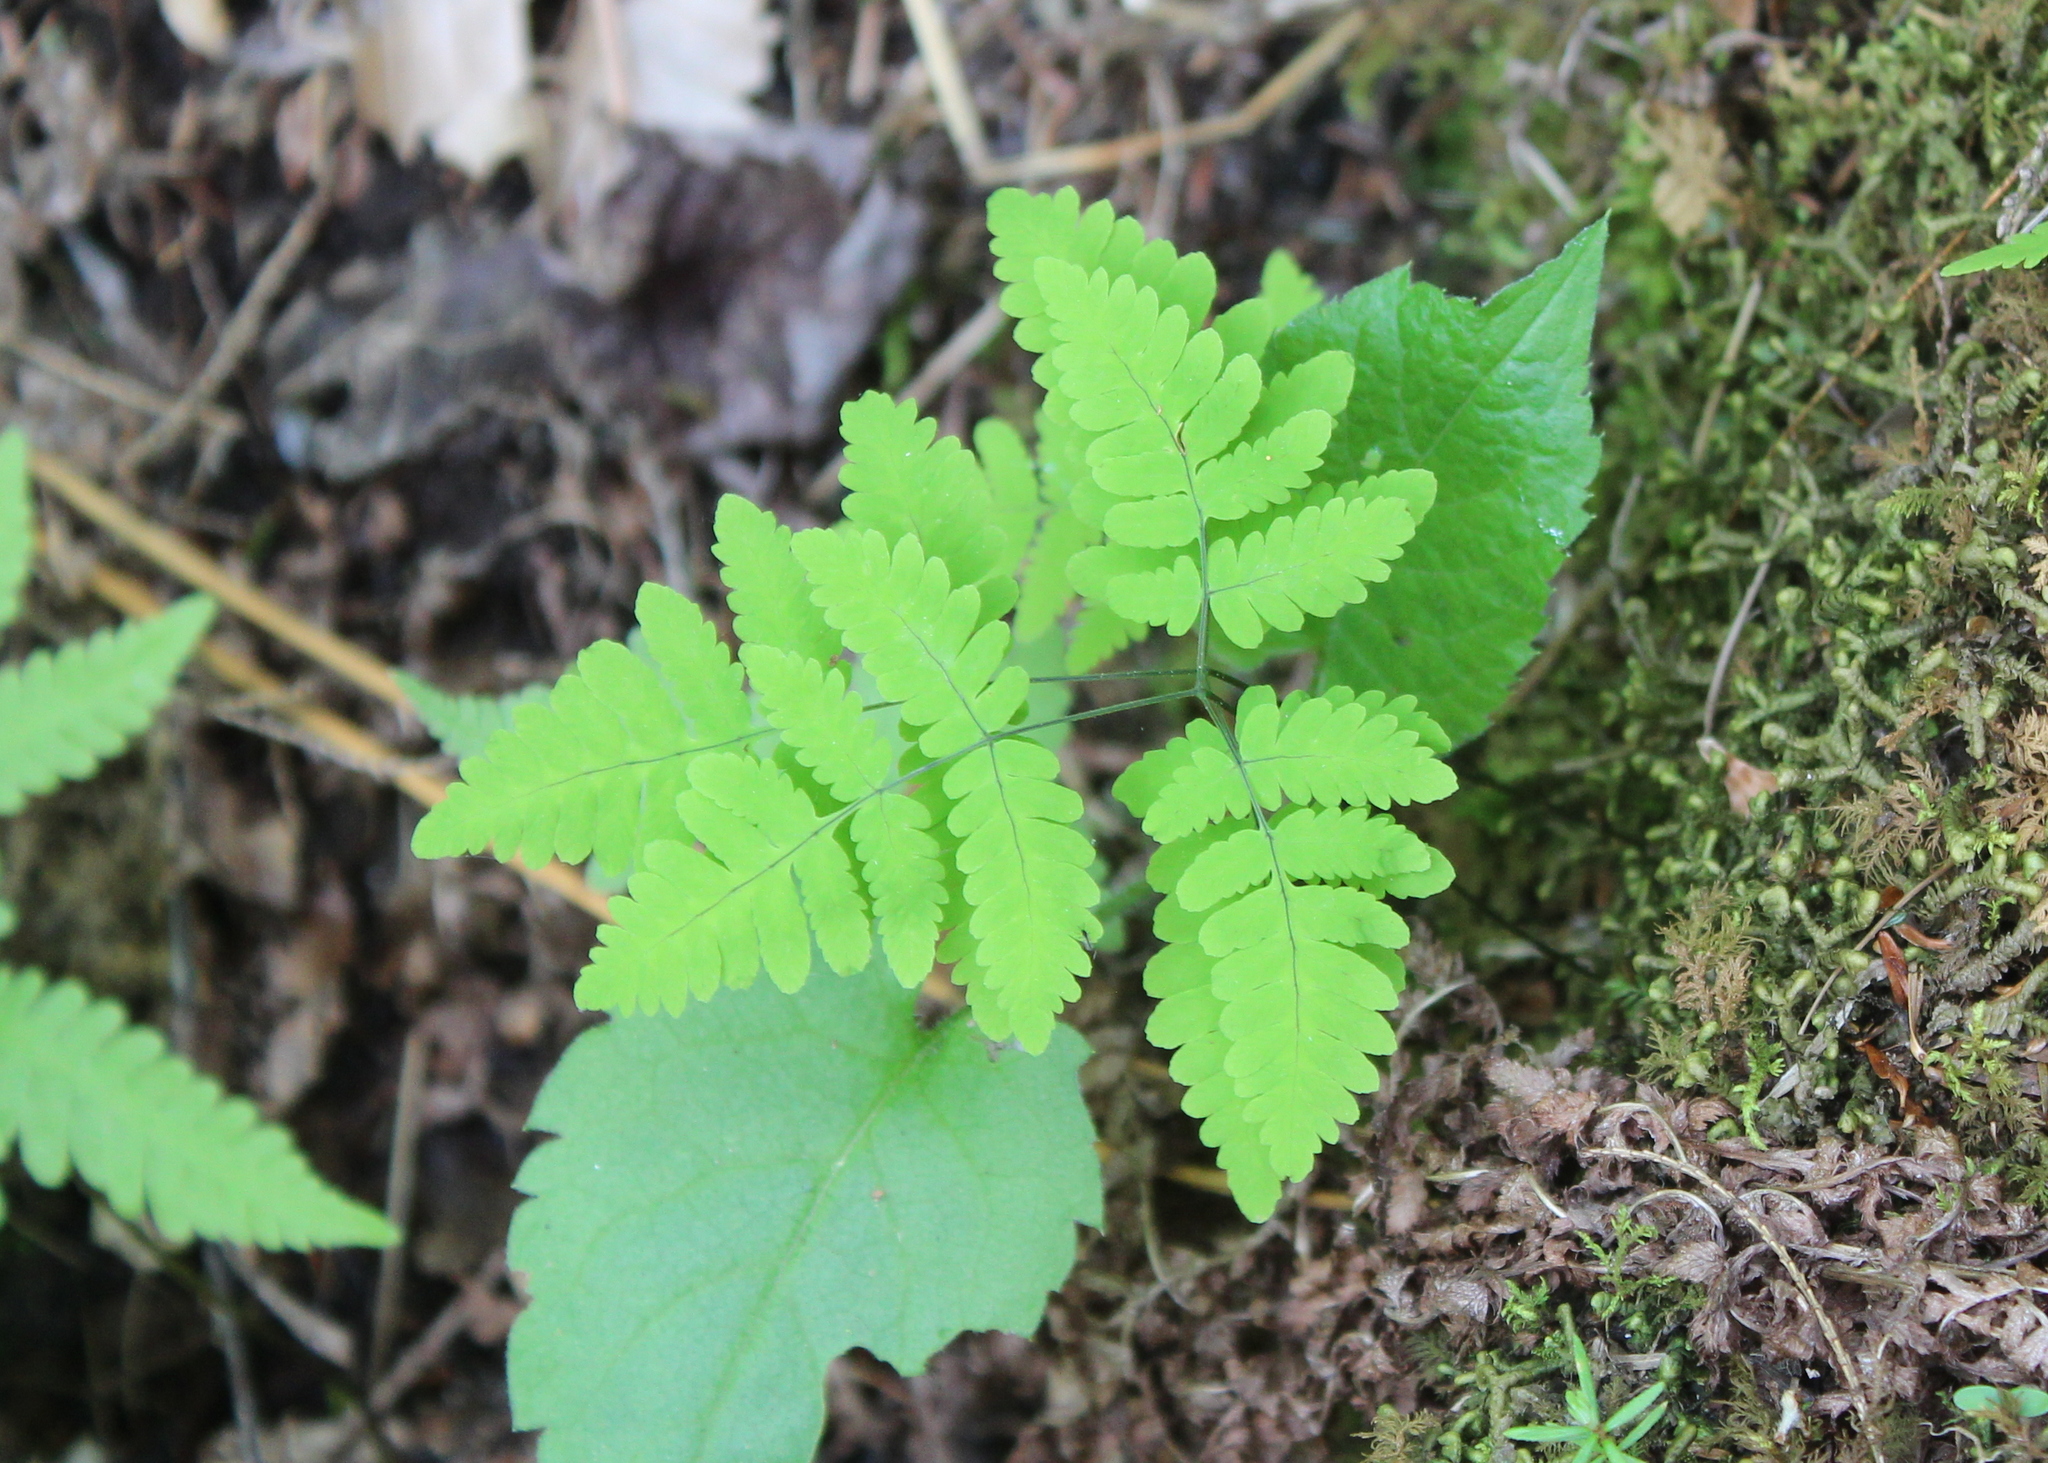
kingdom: Plantae
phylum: Tracheophyta
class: Polypodiopsida
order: Polypodiales
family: Cystopteridaceae
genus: Gymnocarpium
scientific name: Gymnocarpium dryopteris
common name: Oak fern
